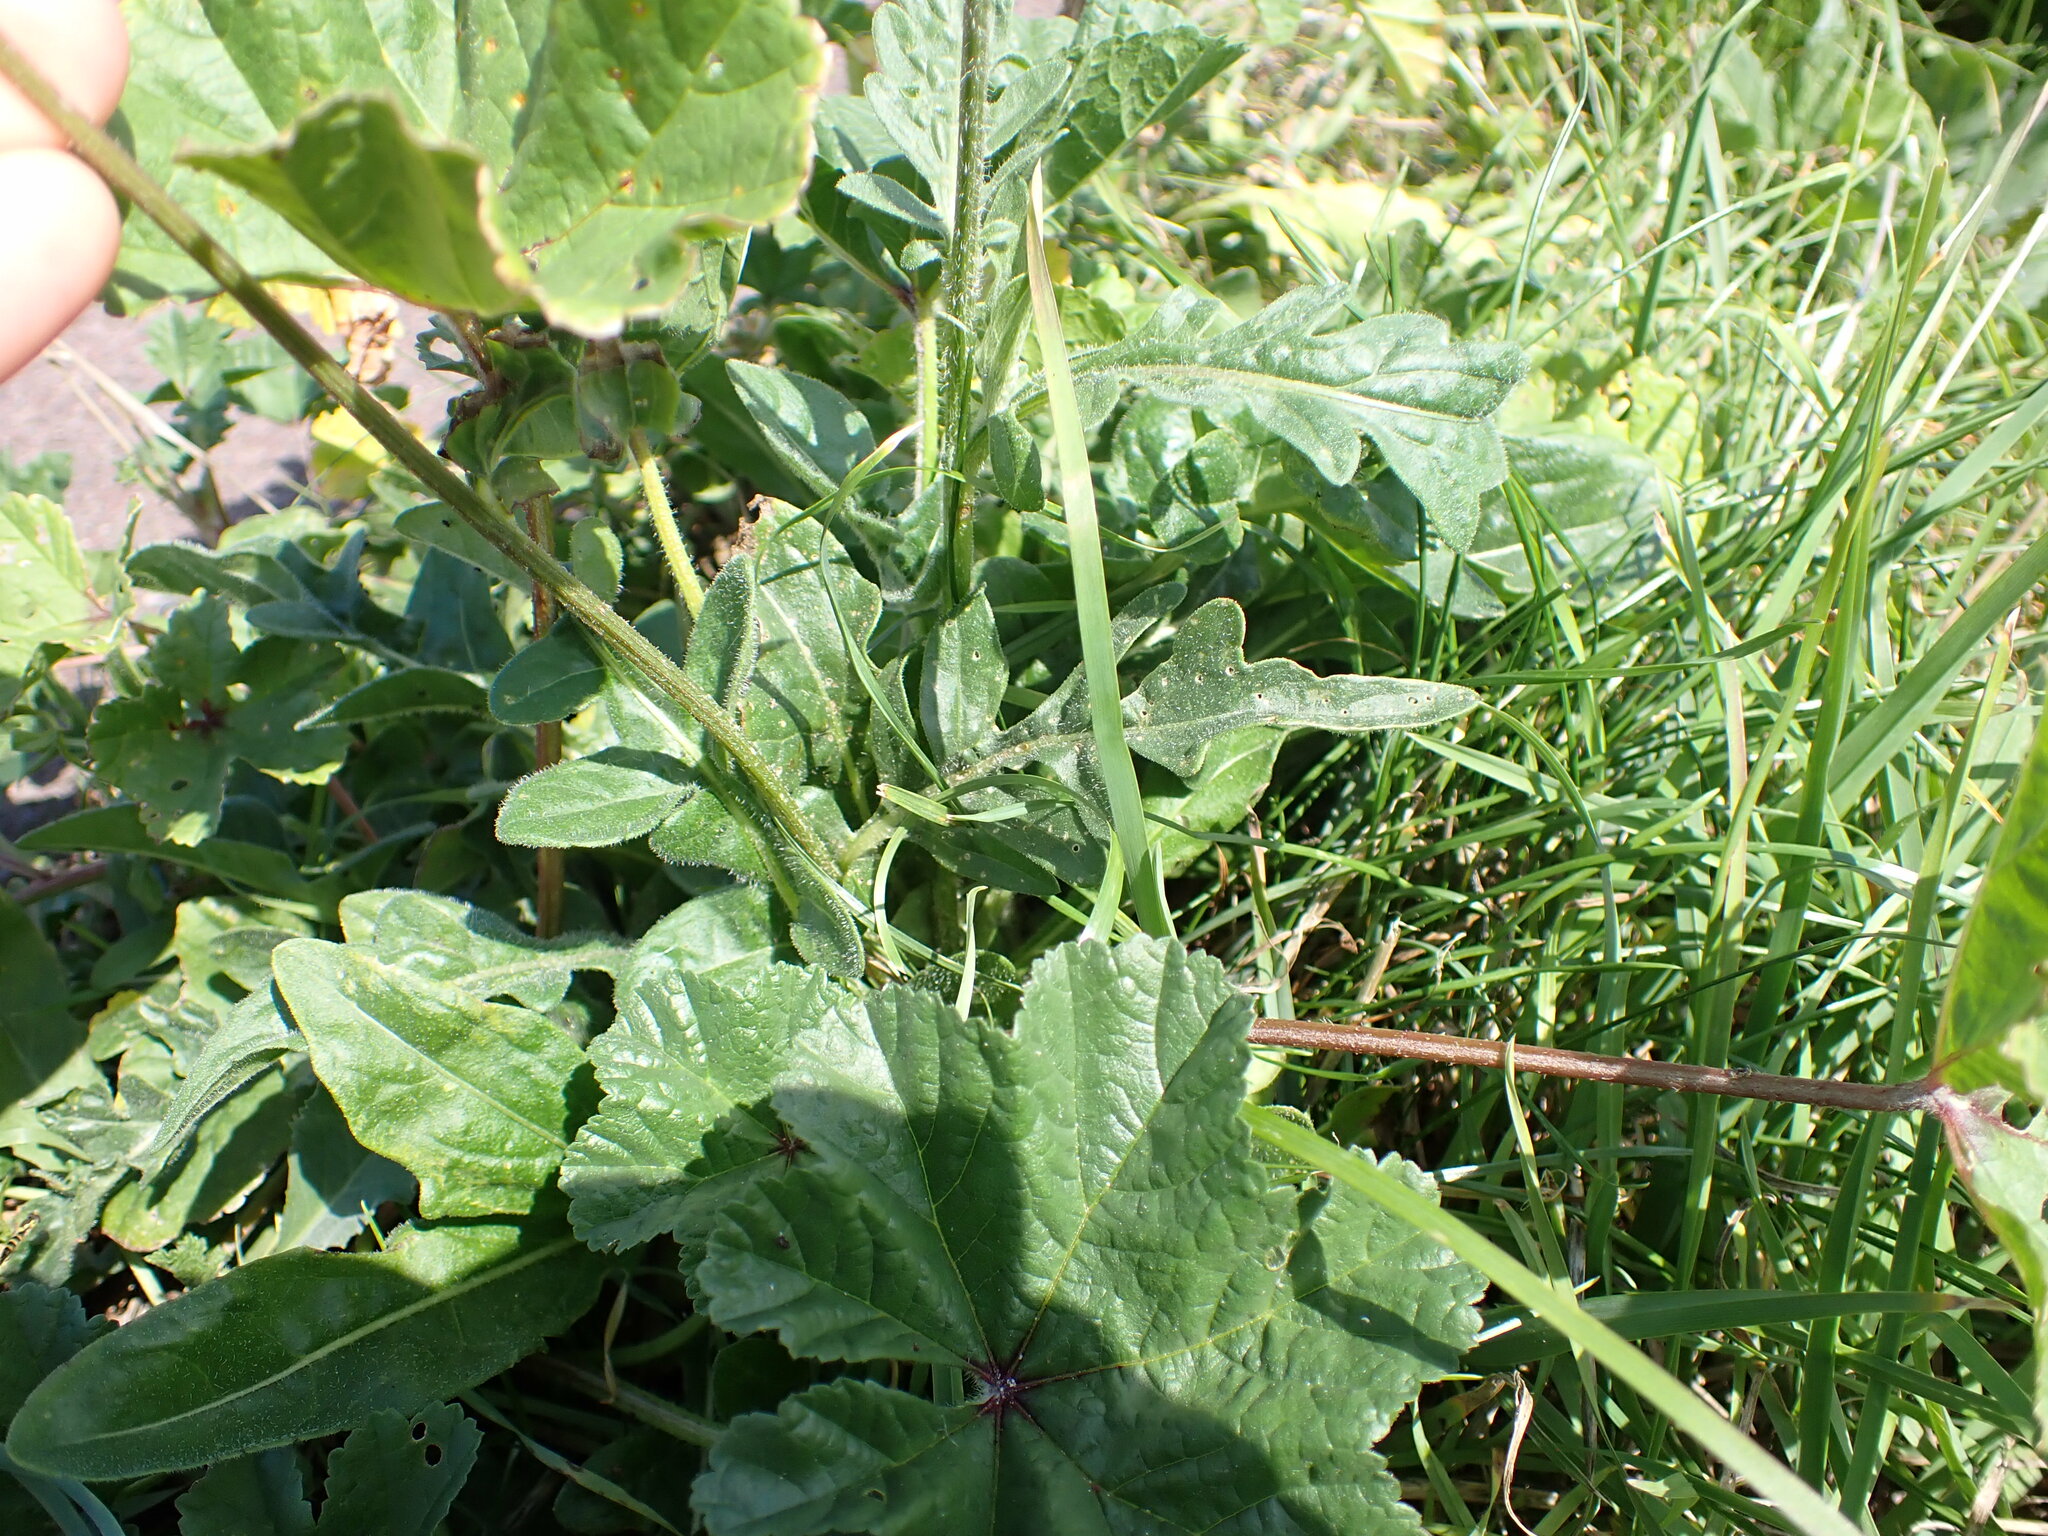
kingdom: Plantae
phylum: Tracheophyta
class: Magnoliopsida
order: Asterales
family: Asteraceae
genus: Centaurea
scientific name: Centaurea scabiosa
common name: Greater knapweed
